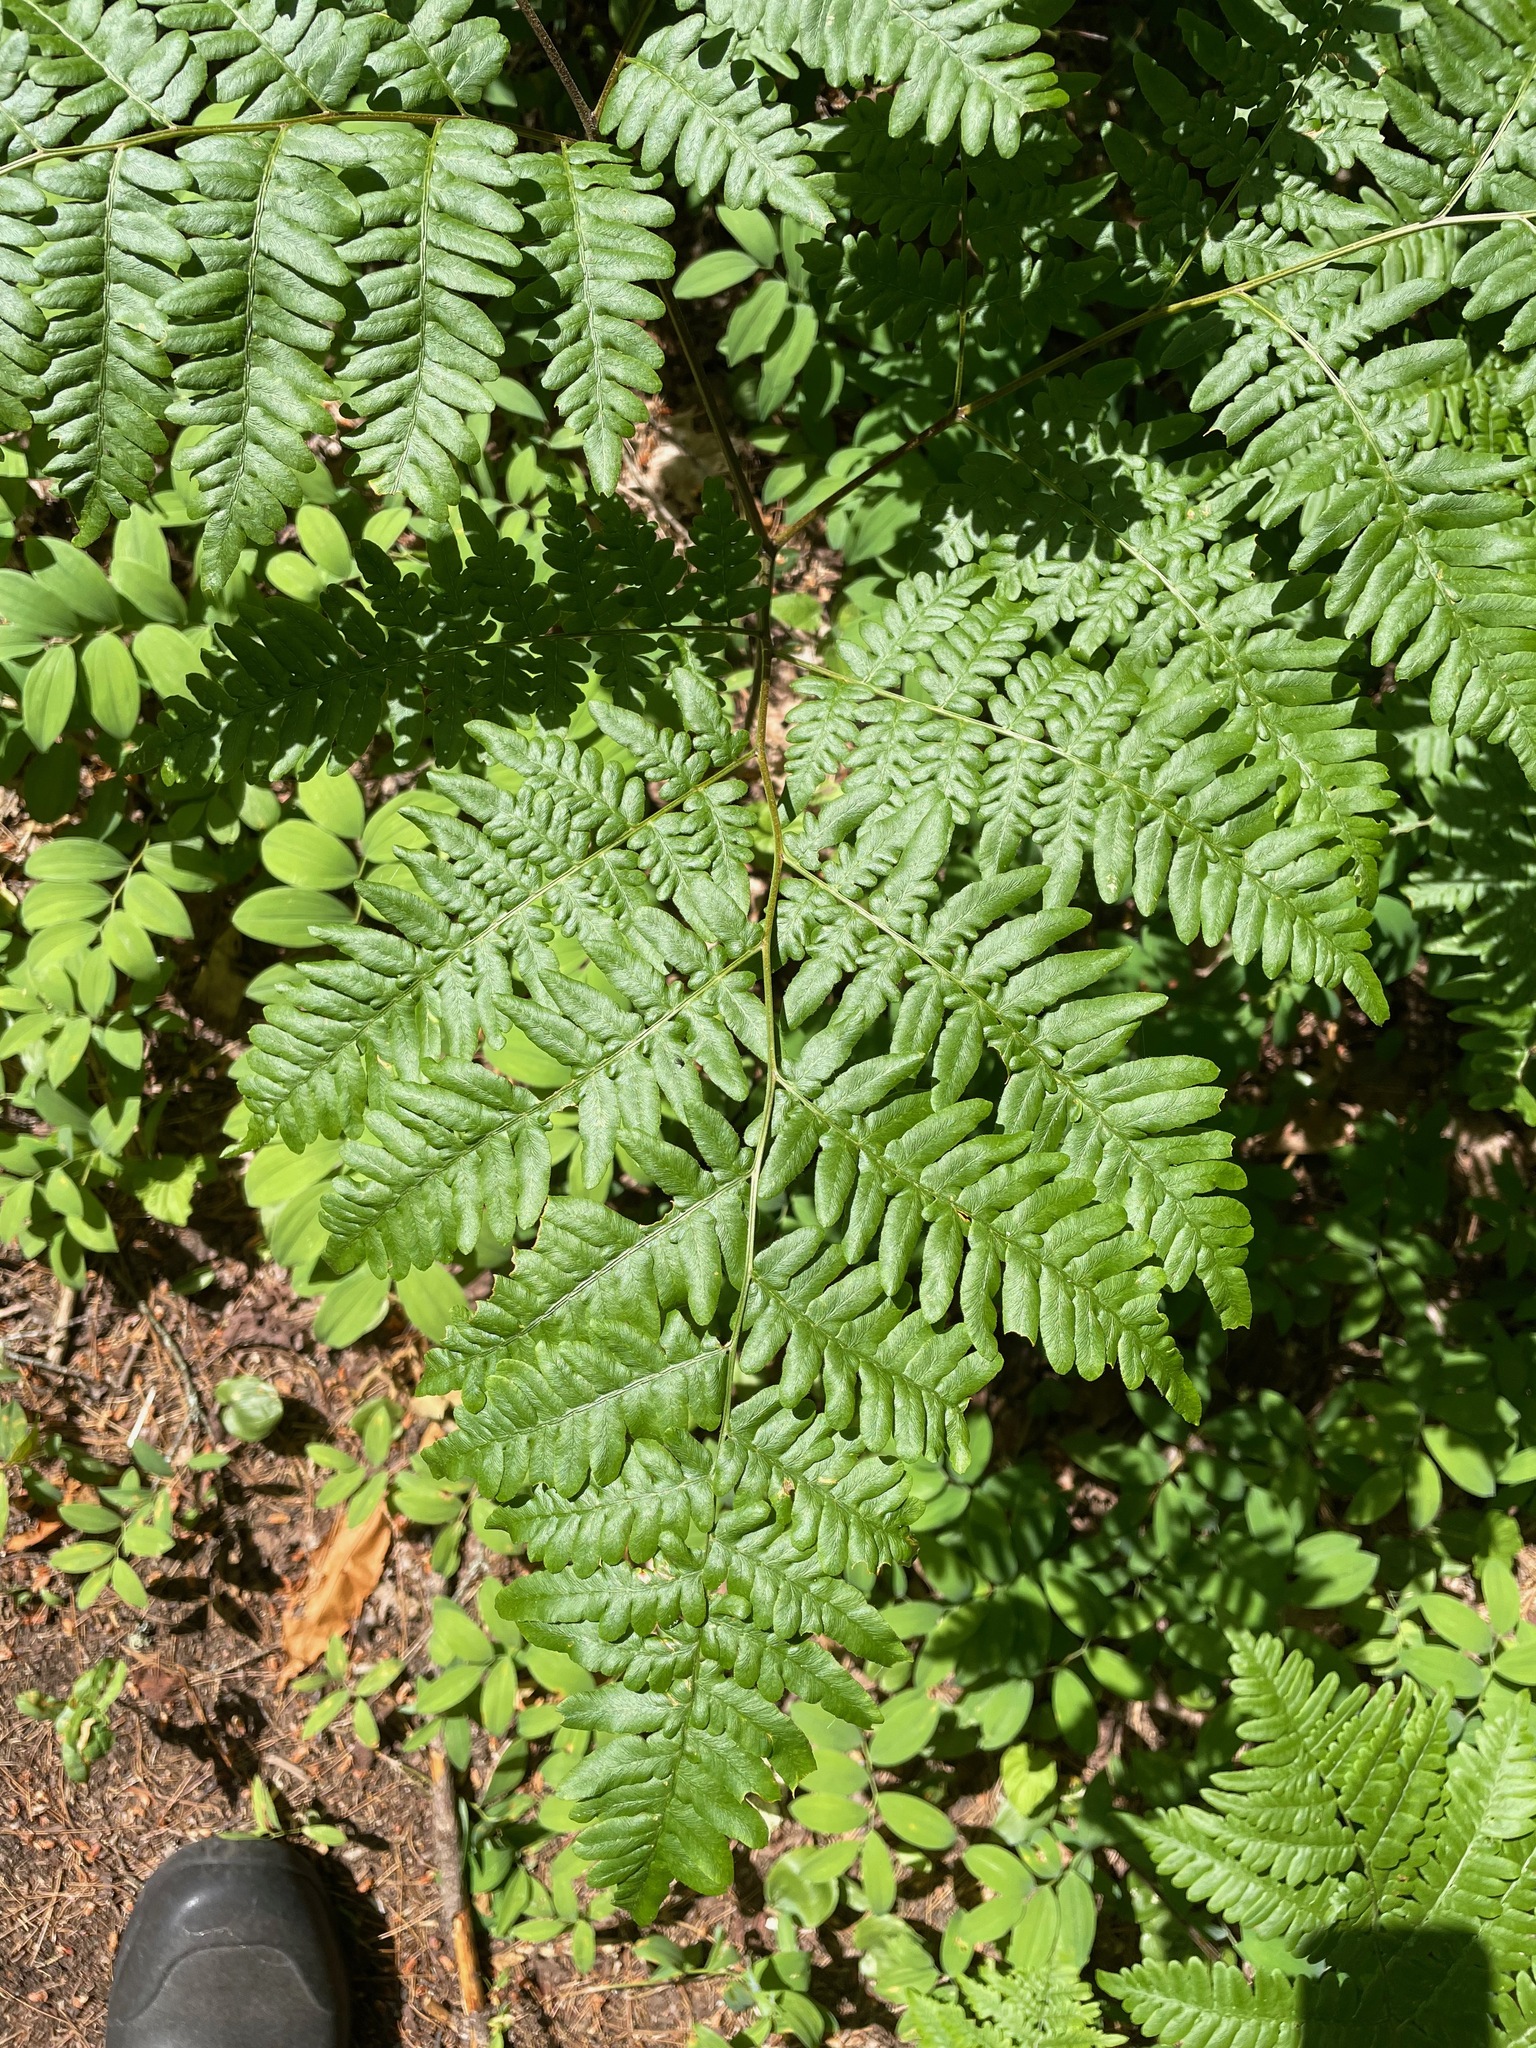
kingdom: Plantae
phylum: Tracheophyta
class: Polypodiopsida
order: Polypodiales
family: Dennstaedtiaceae
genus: Pteridium
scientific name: Pteridium aquilinum
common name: Bracken
